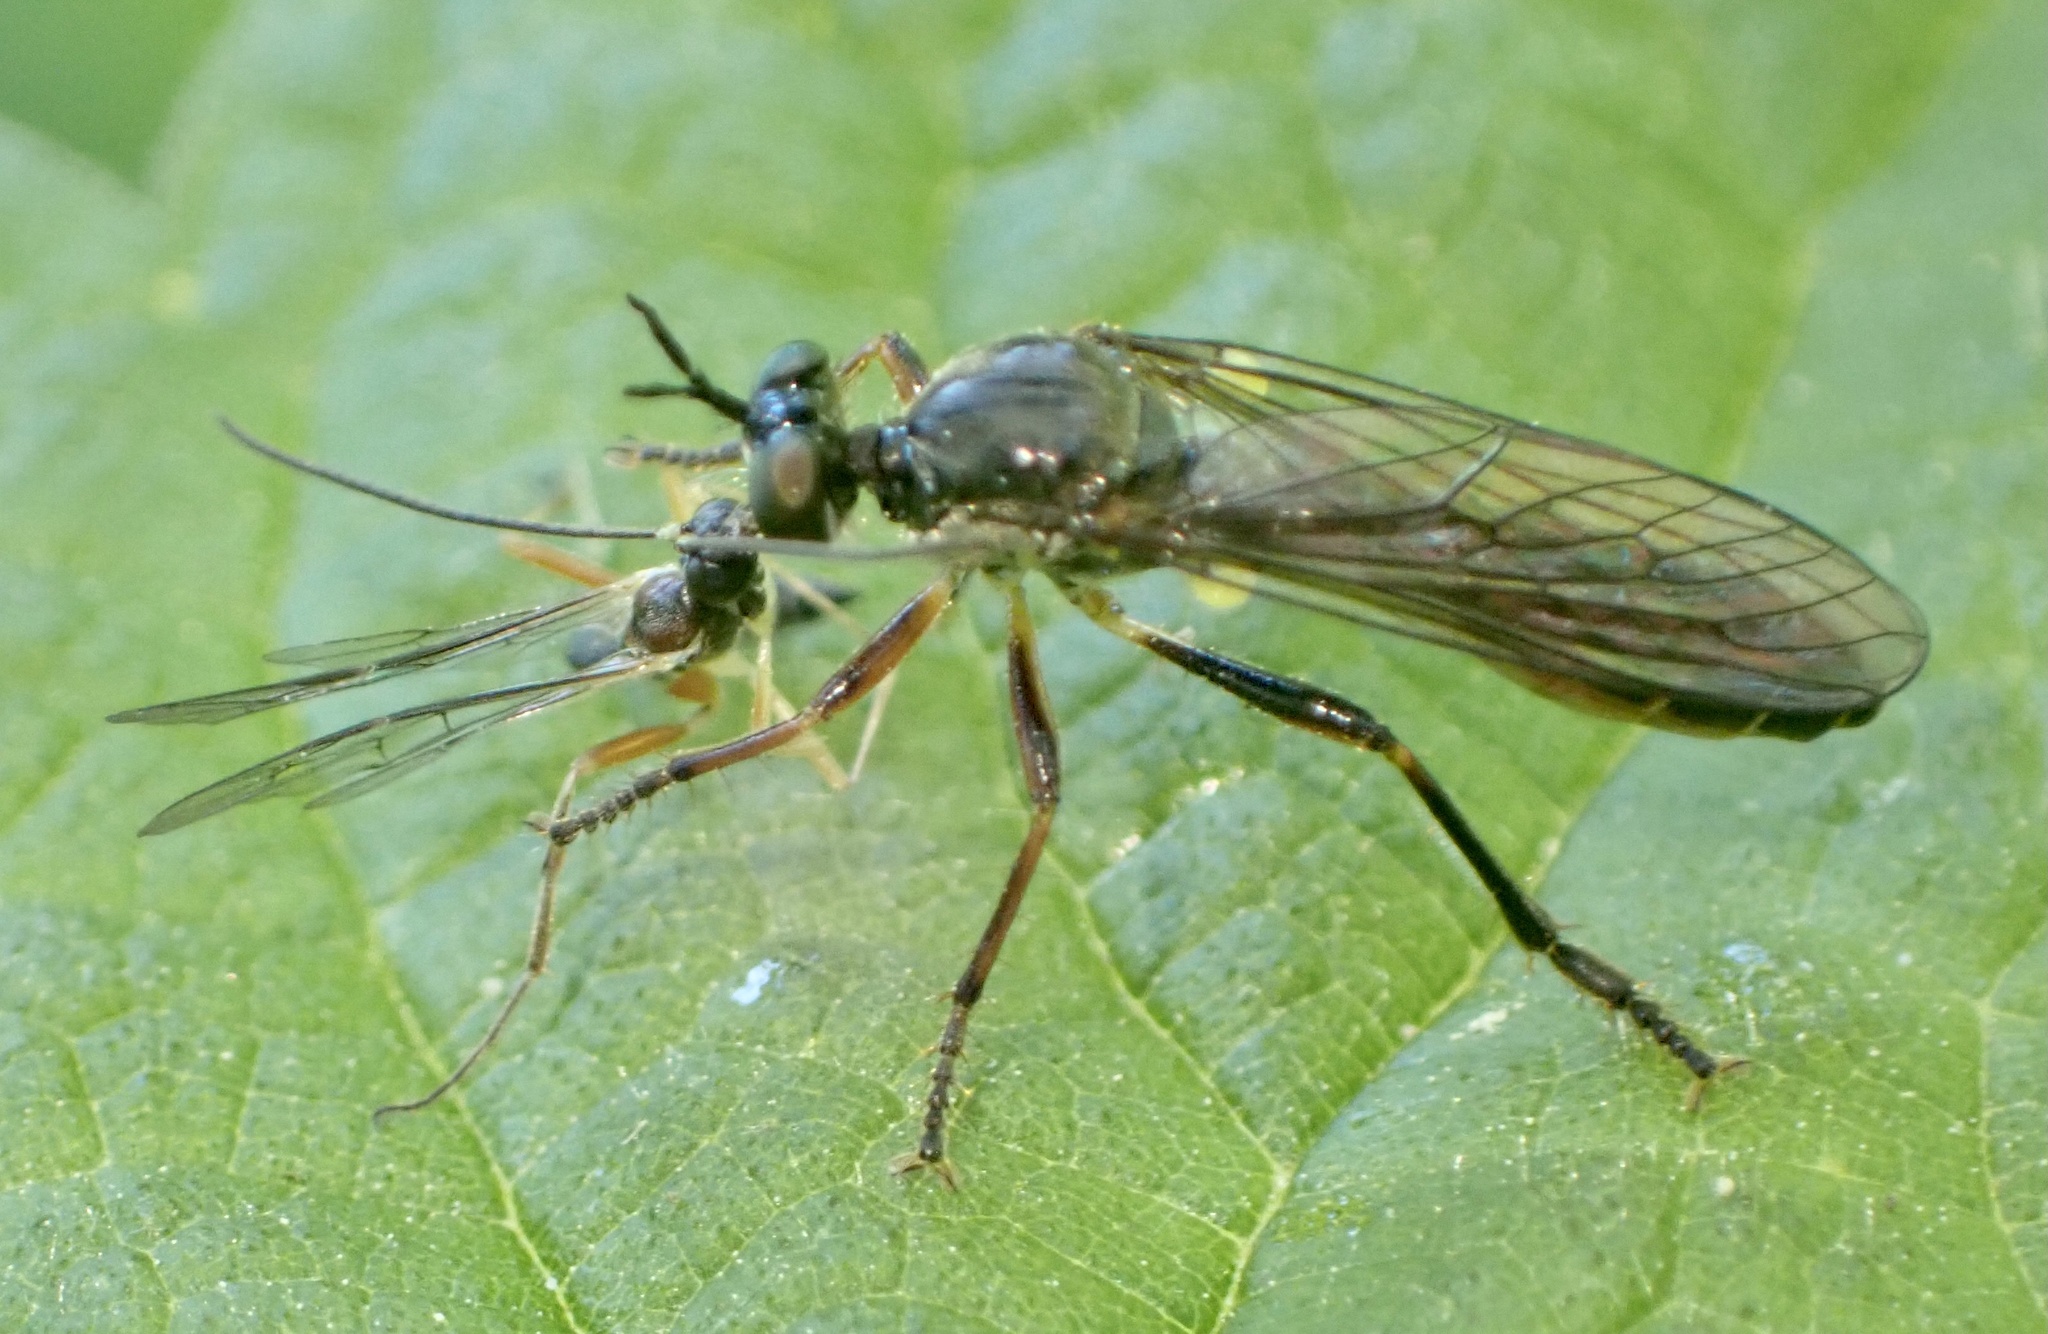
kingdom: Animalia
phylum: Arthropoda
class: Insecta
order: Diptera
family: Asilidae
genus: Dioctria
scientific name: Dioctria hyalipennis
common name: Stripe-legged robberfly
